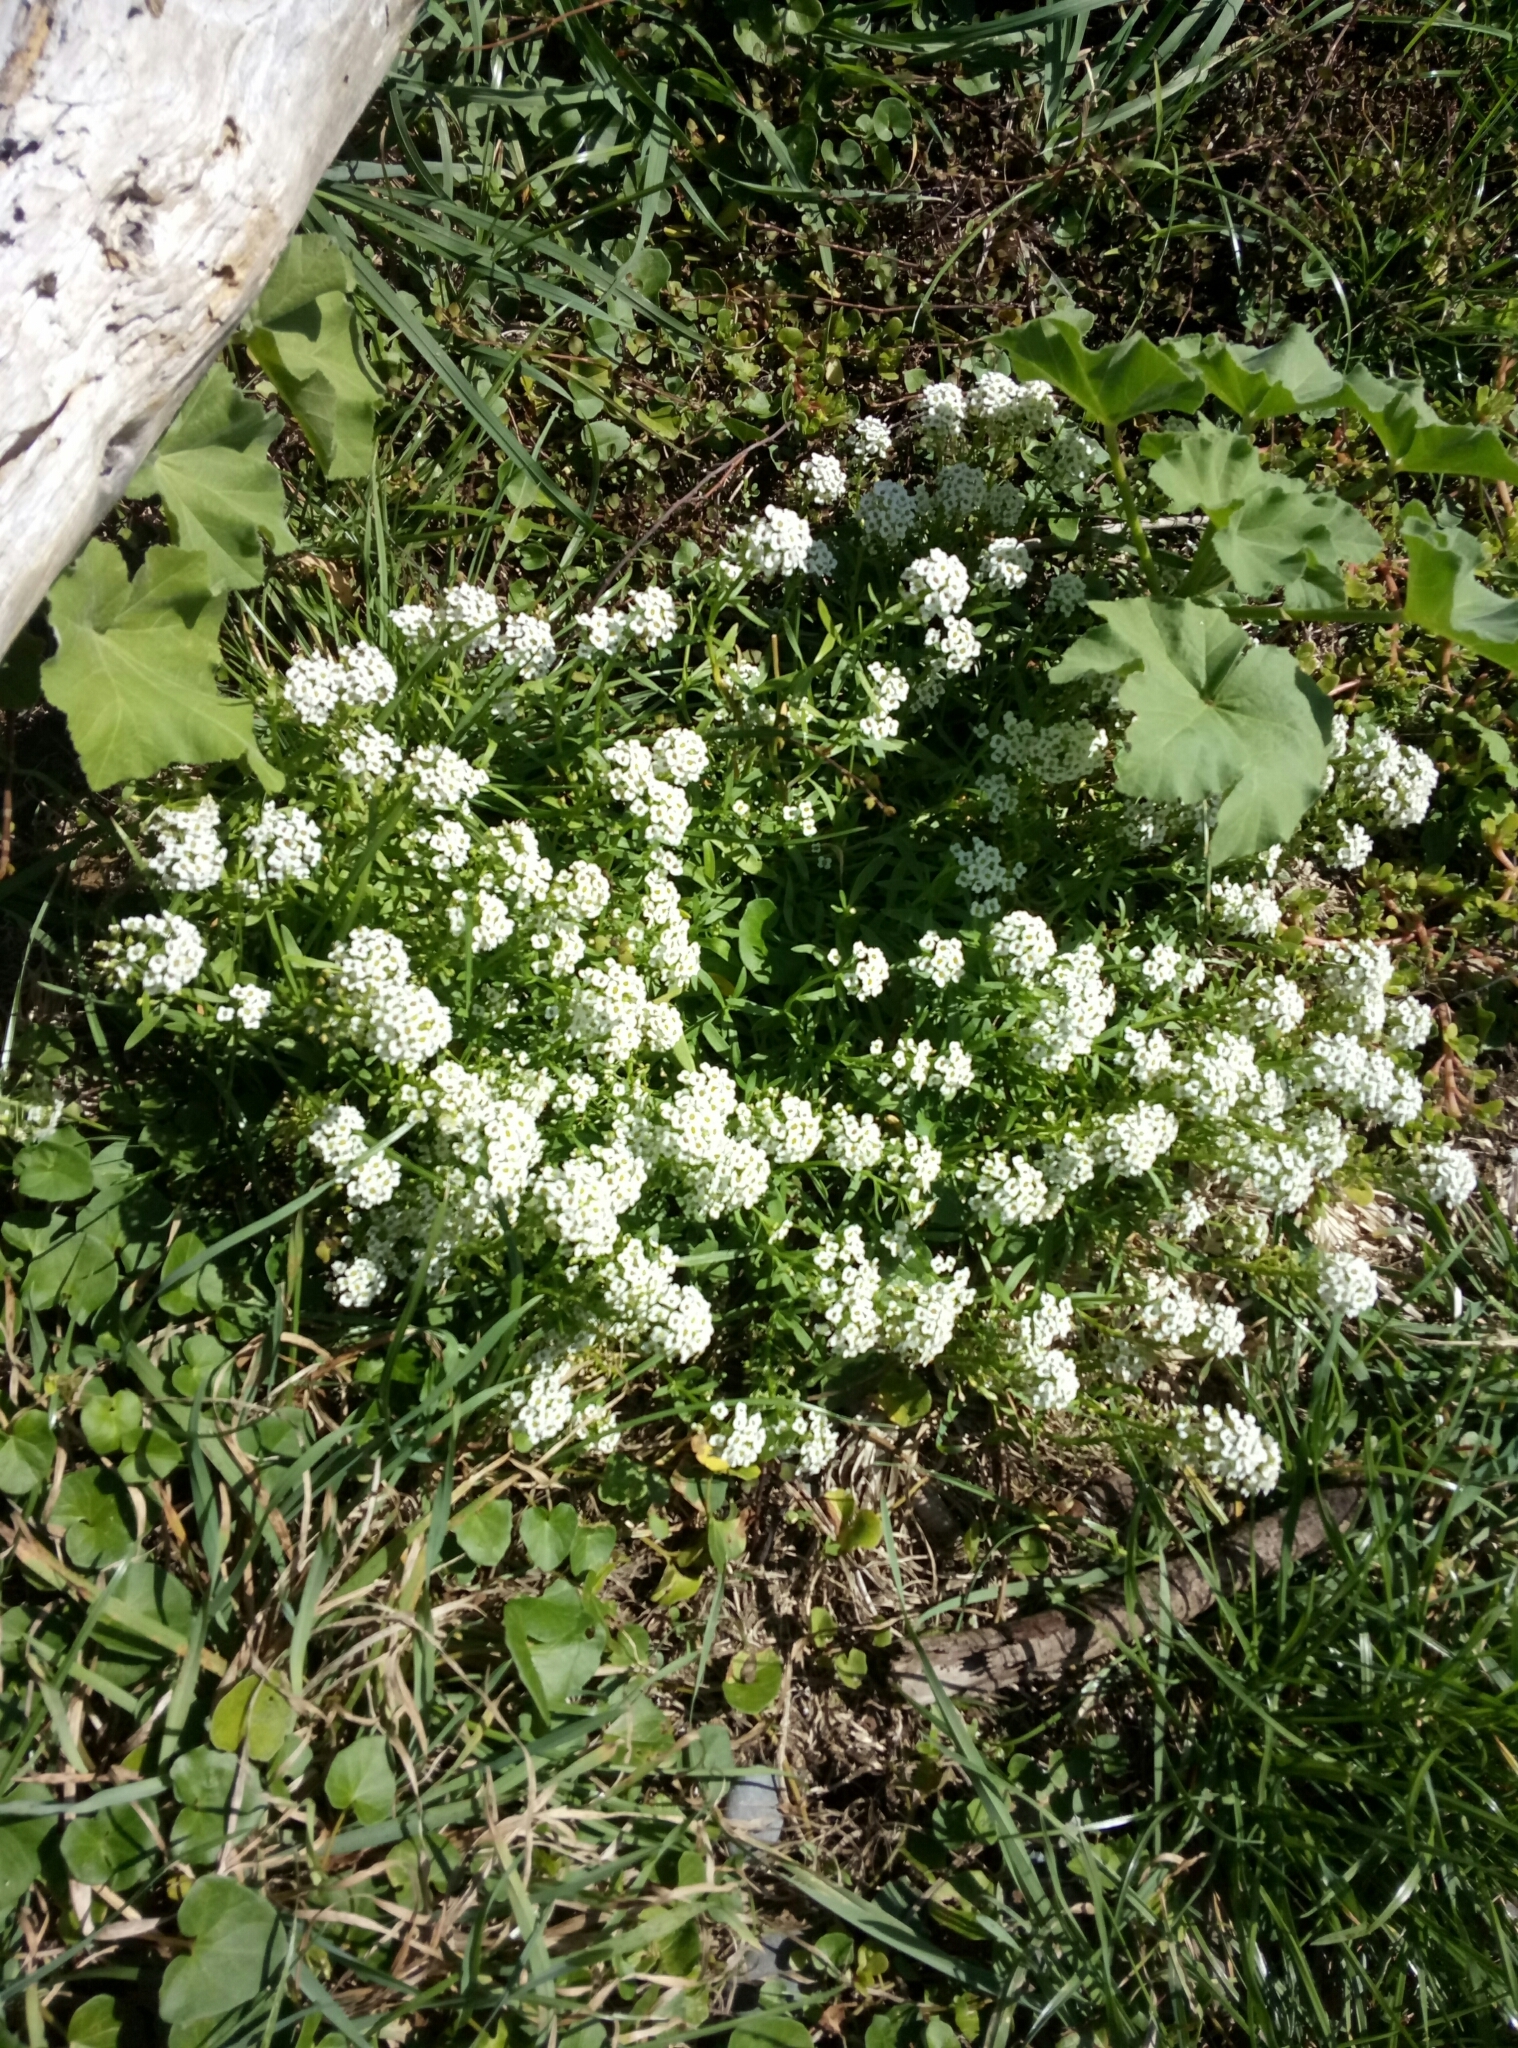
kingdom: Plantae
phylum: Tracheophyta
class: Magnoliopsida
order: Brassicales
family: Brassicaceae
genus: Lobularia
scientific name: Lobularia maritima
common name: Sweet alison
